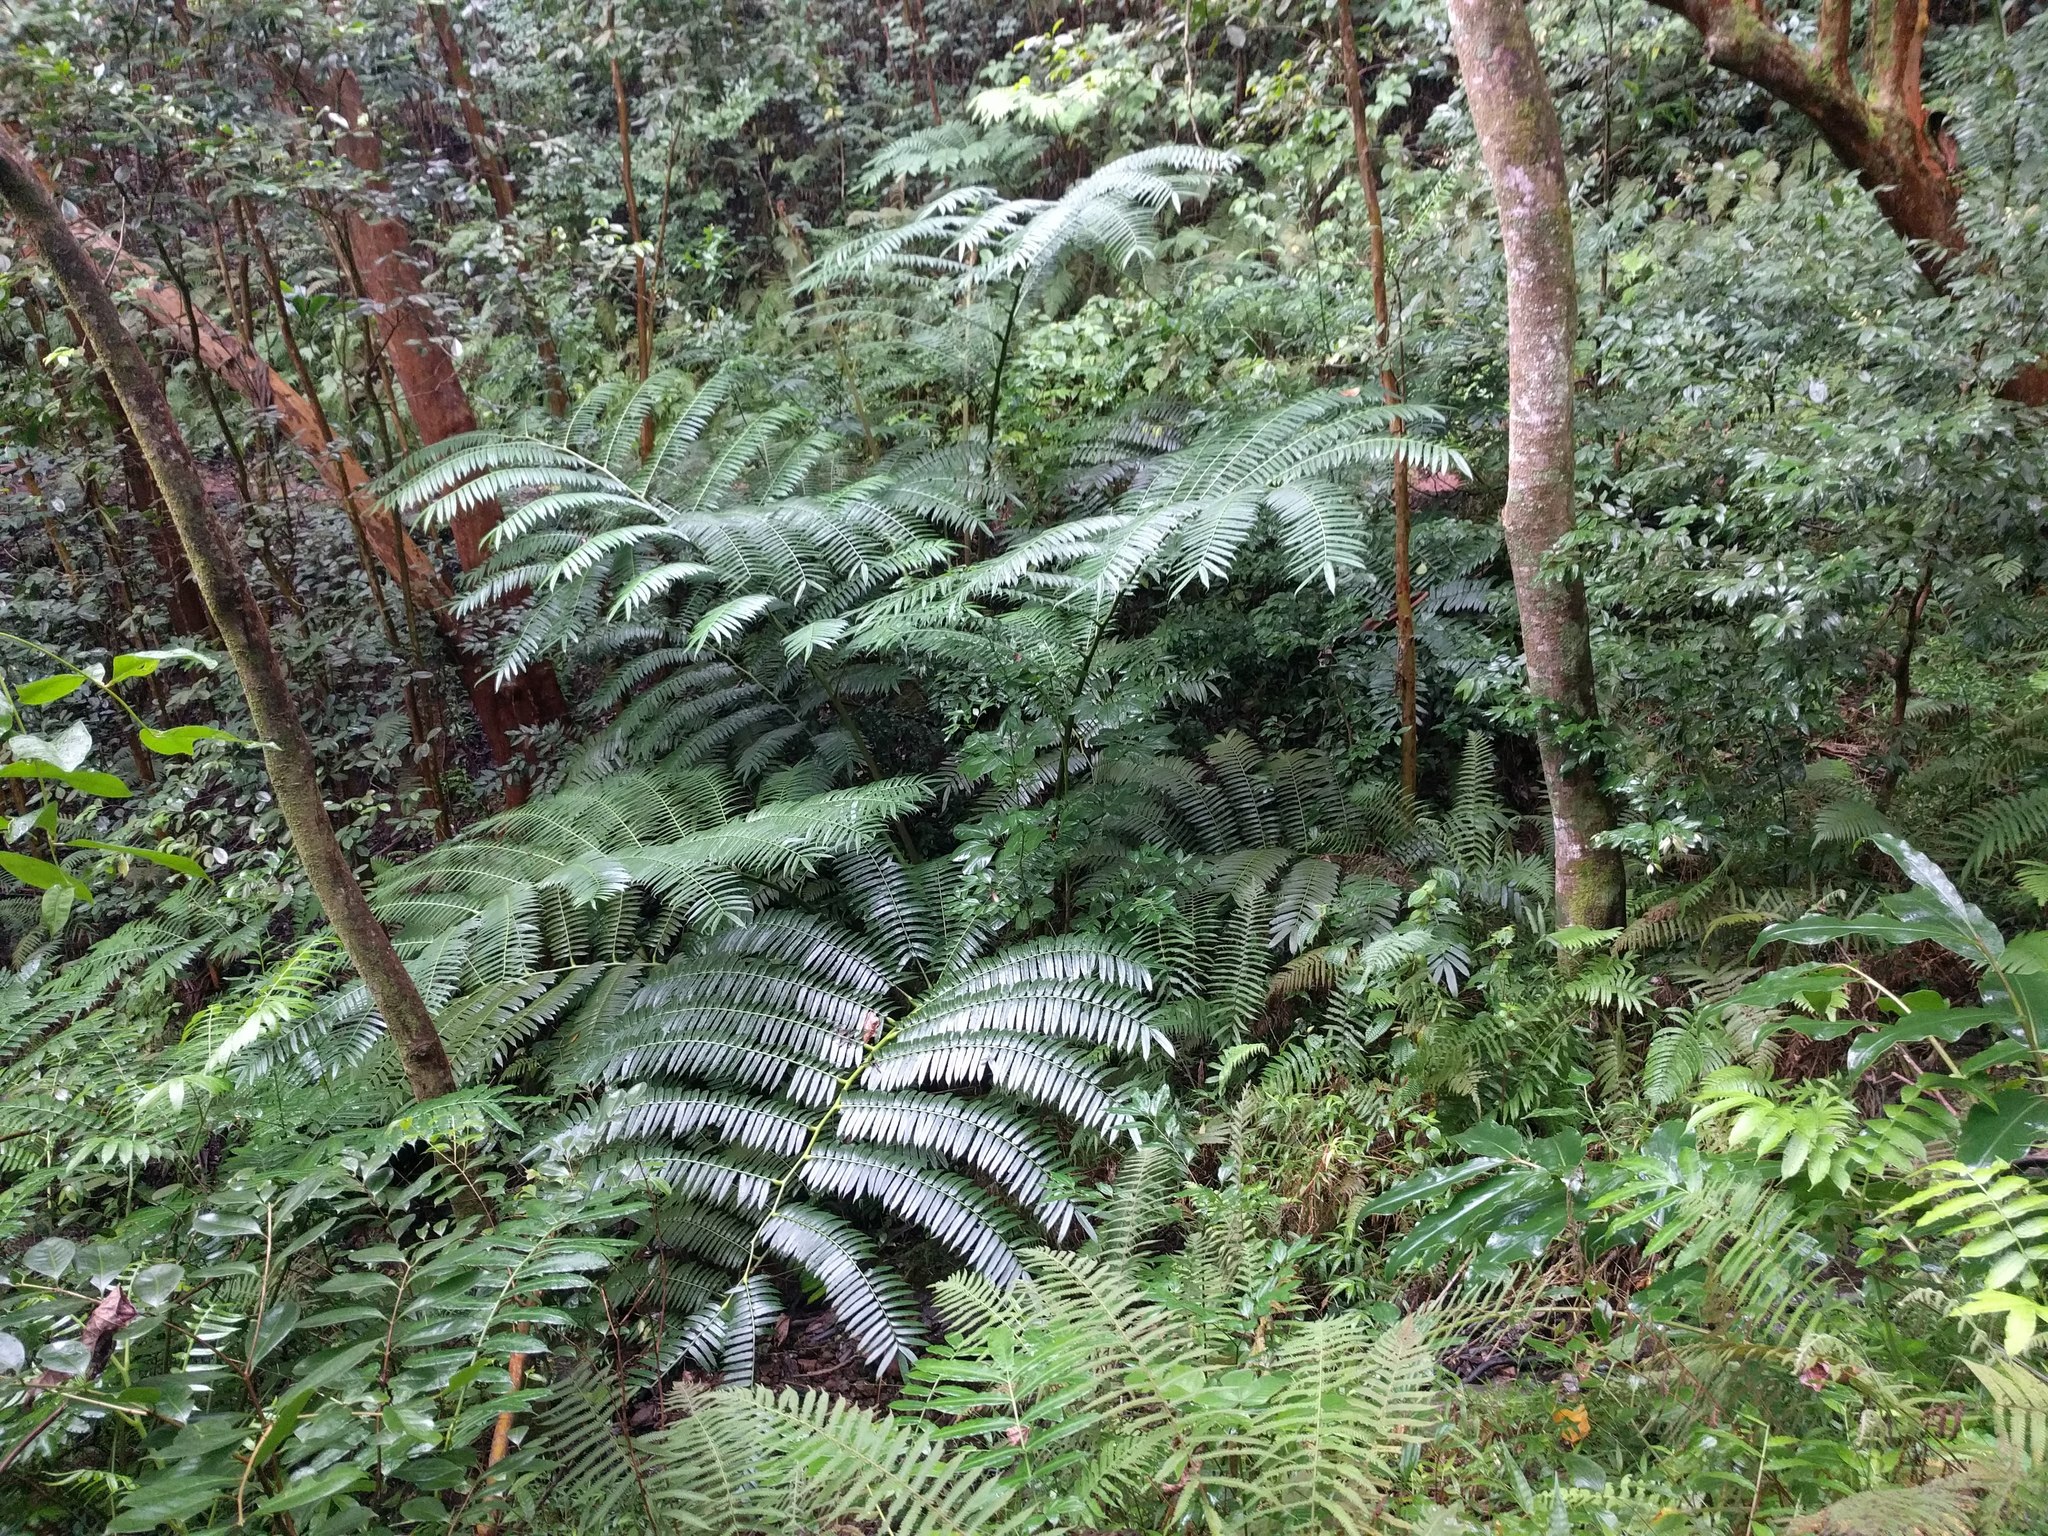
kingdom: Plantae
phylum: Tracheophyta
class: Polypodiopsida
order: Marattiales
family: Marattiaceae
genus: Angiopteris
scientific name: Angiopteris evecta
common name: Mule's-foot fern
